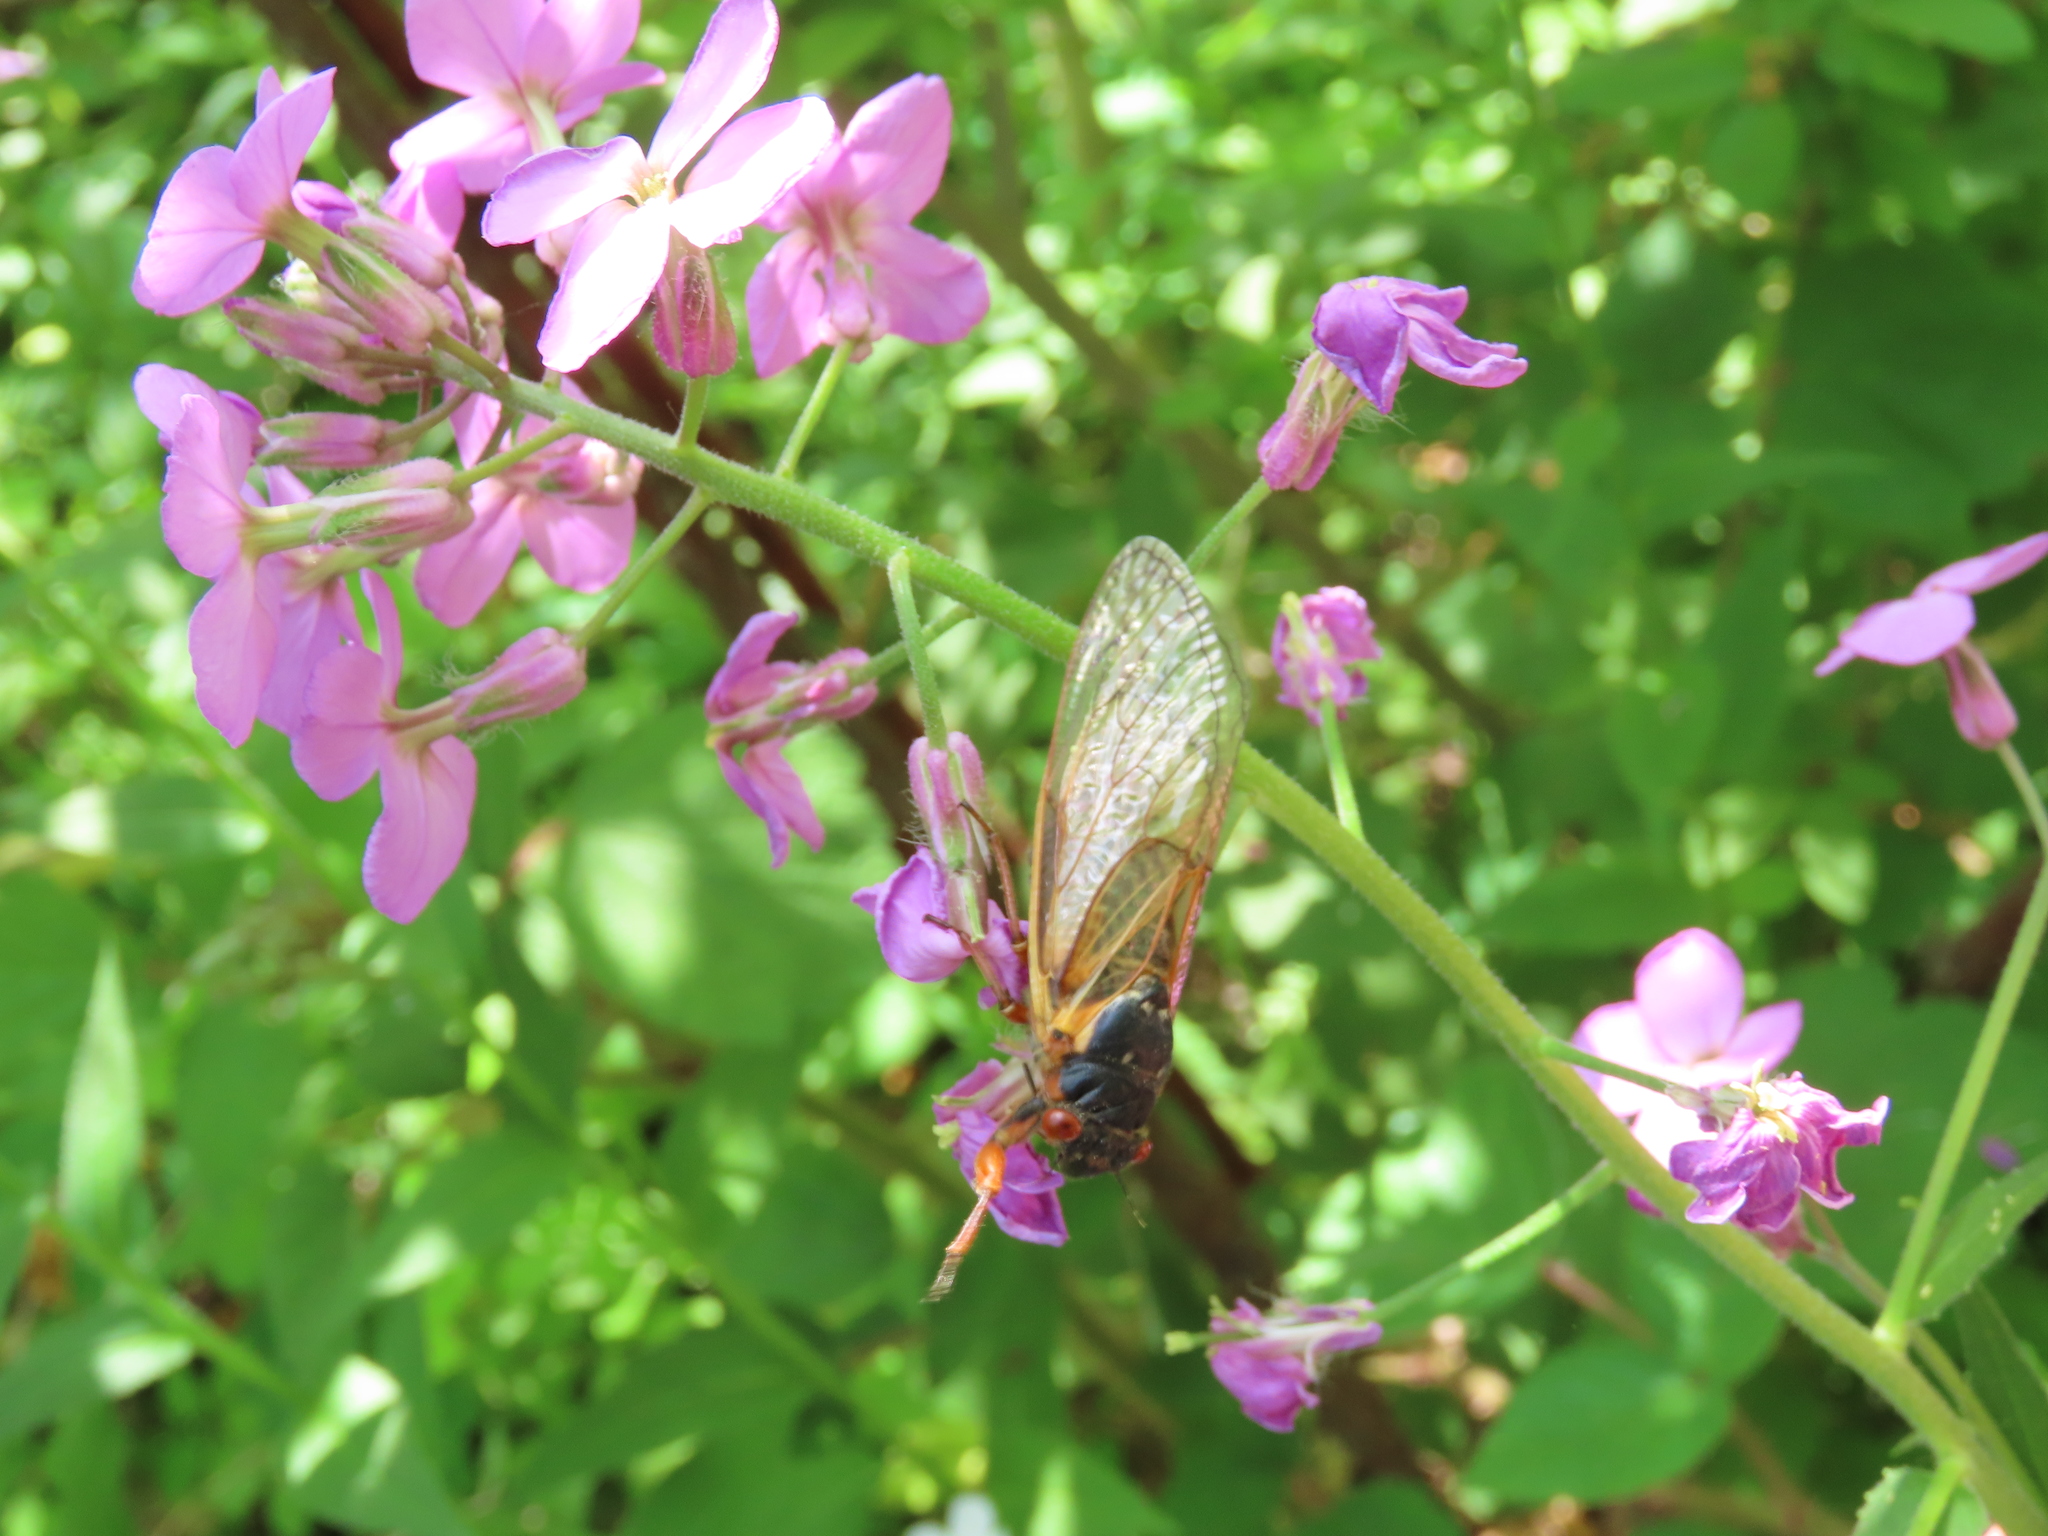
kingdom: Animalia
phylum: Arthropoda
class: Insecta
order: Hemiptera
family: Cicadidae
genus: Magicicada
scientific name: Magicicada septendecim
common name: Periodical cicada
